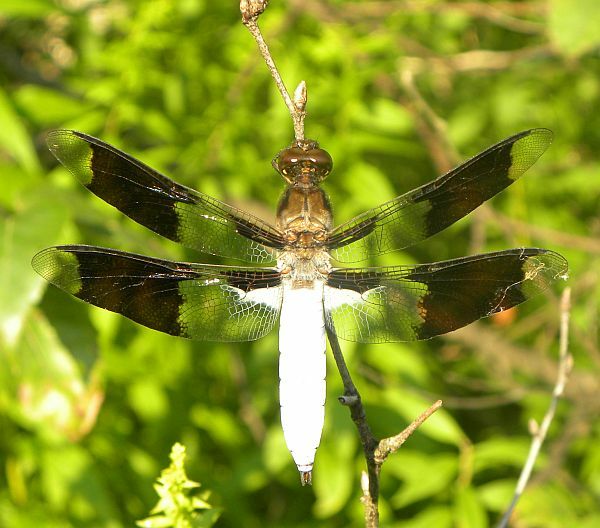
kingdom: Animalia
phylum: Arthropoda
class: Insecta
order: Odonata
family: Libellulidae
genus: Plathemis
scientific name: Plathemis lydia
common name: Common whitetail
